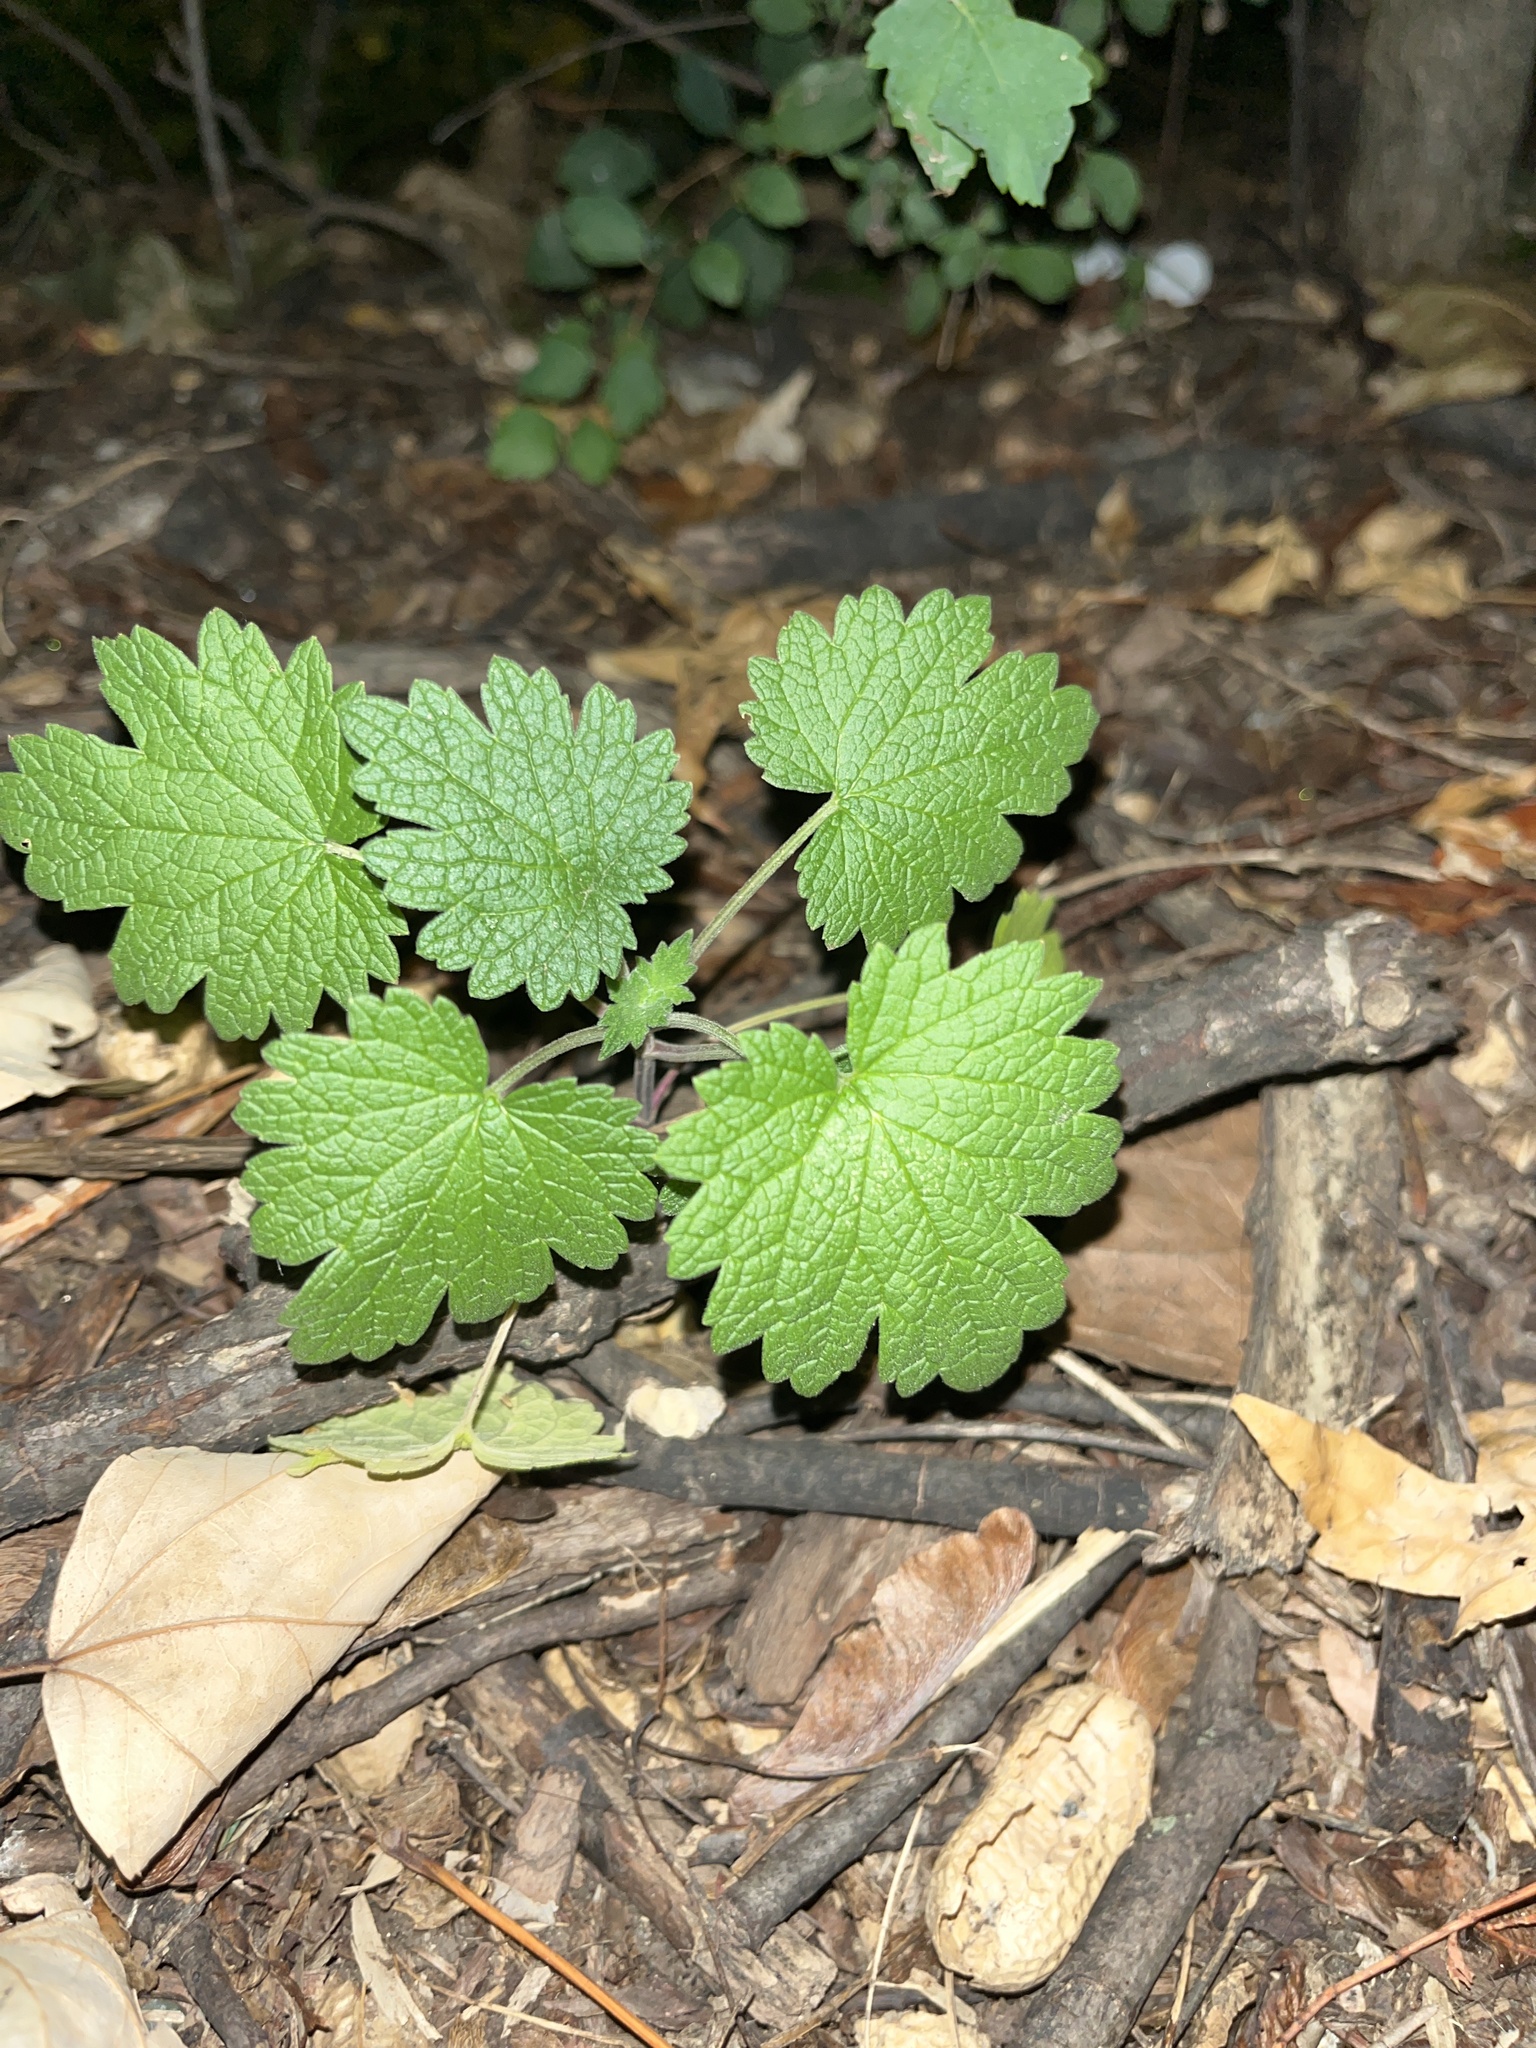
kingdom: Plantae
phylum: Tracheophyta
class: Magnoliopsida
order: Lamiales
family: Lamiaceae
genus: Leonurus
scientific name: Leonurus cardiaca
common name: Motherwort
